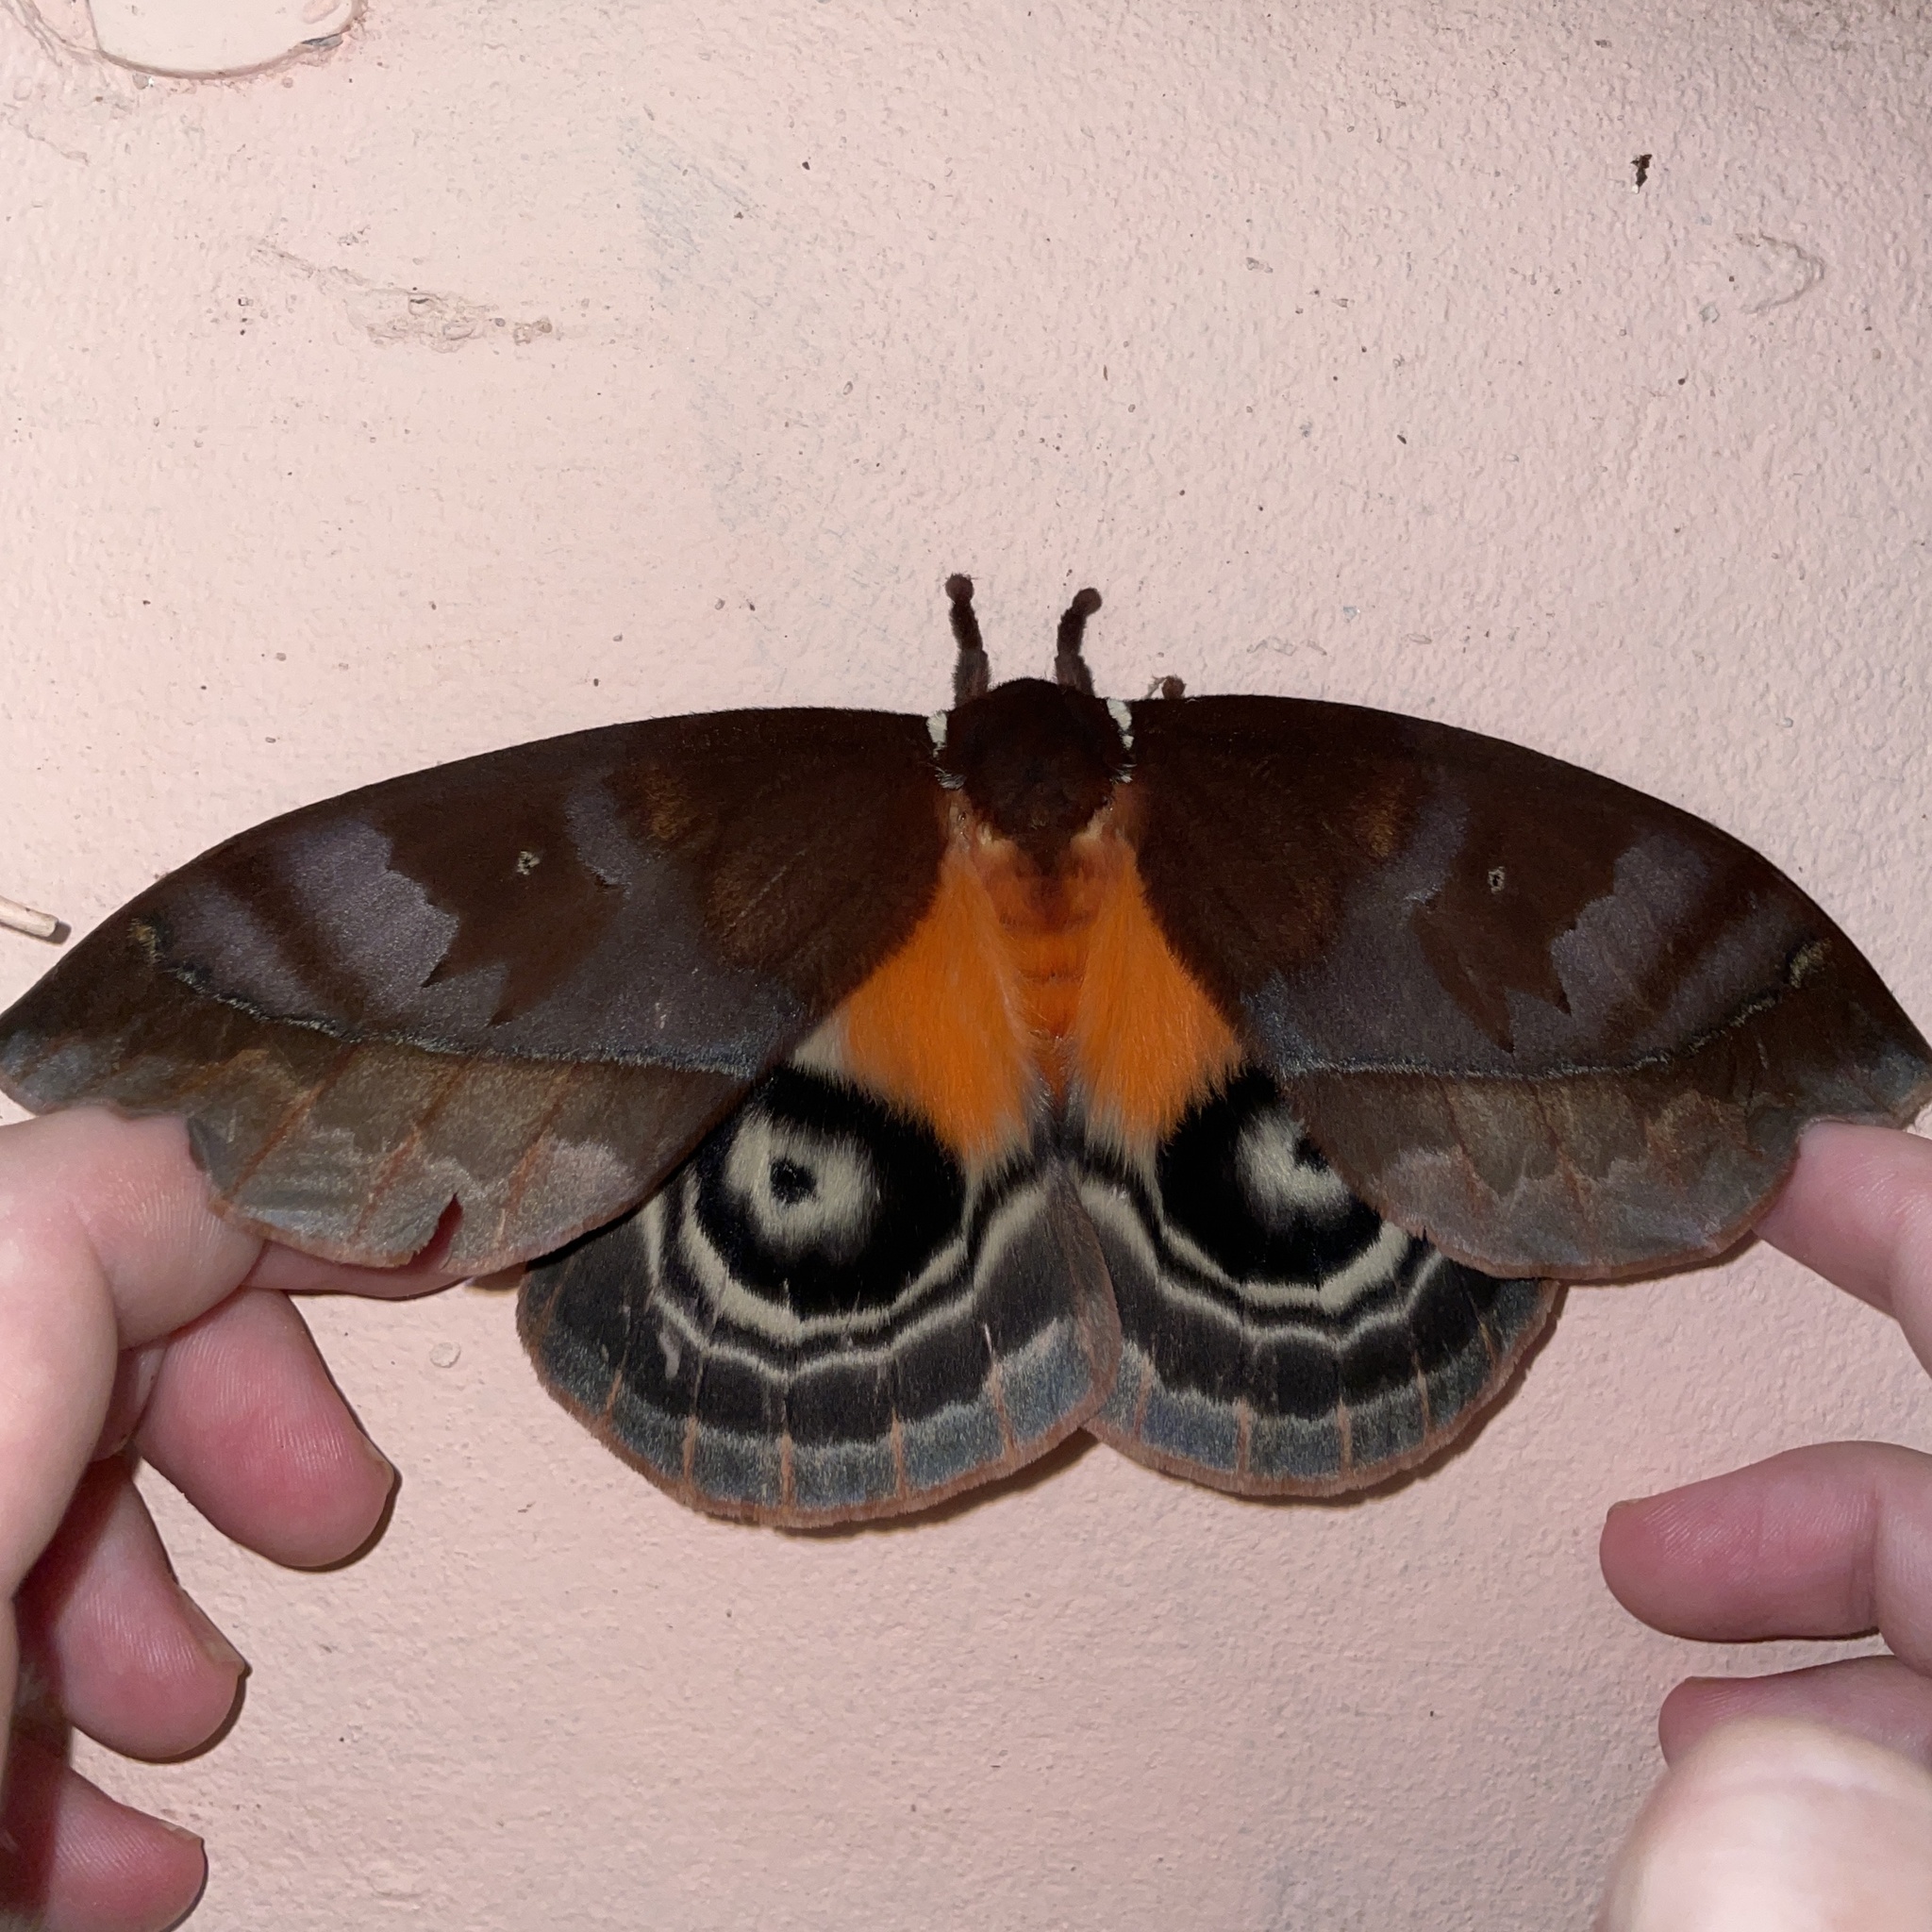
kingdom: Animalia
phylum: Arthropoda
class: Insecta
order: Lepidoptera
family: Saturniidae
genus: Automeris
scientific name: Automeris egeus
